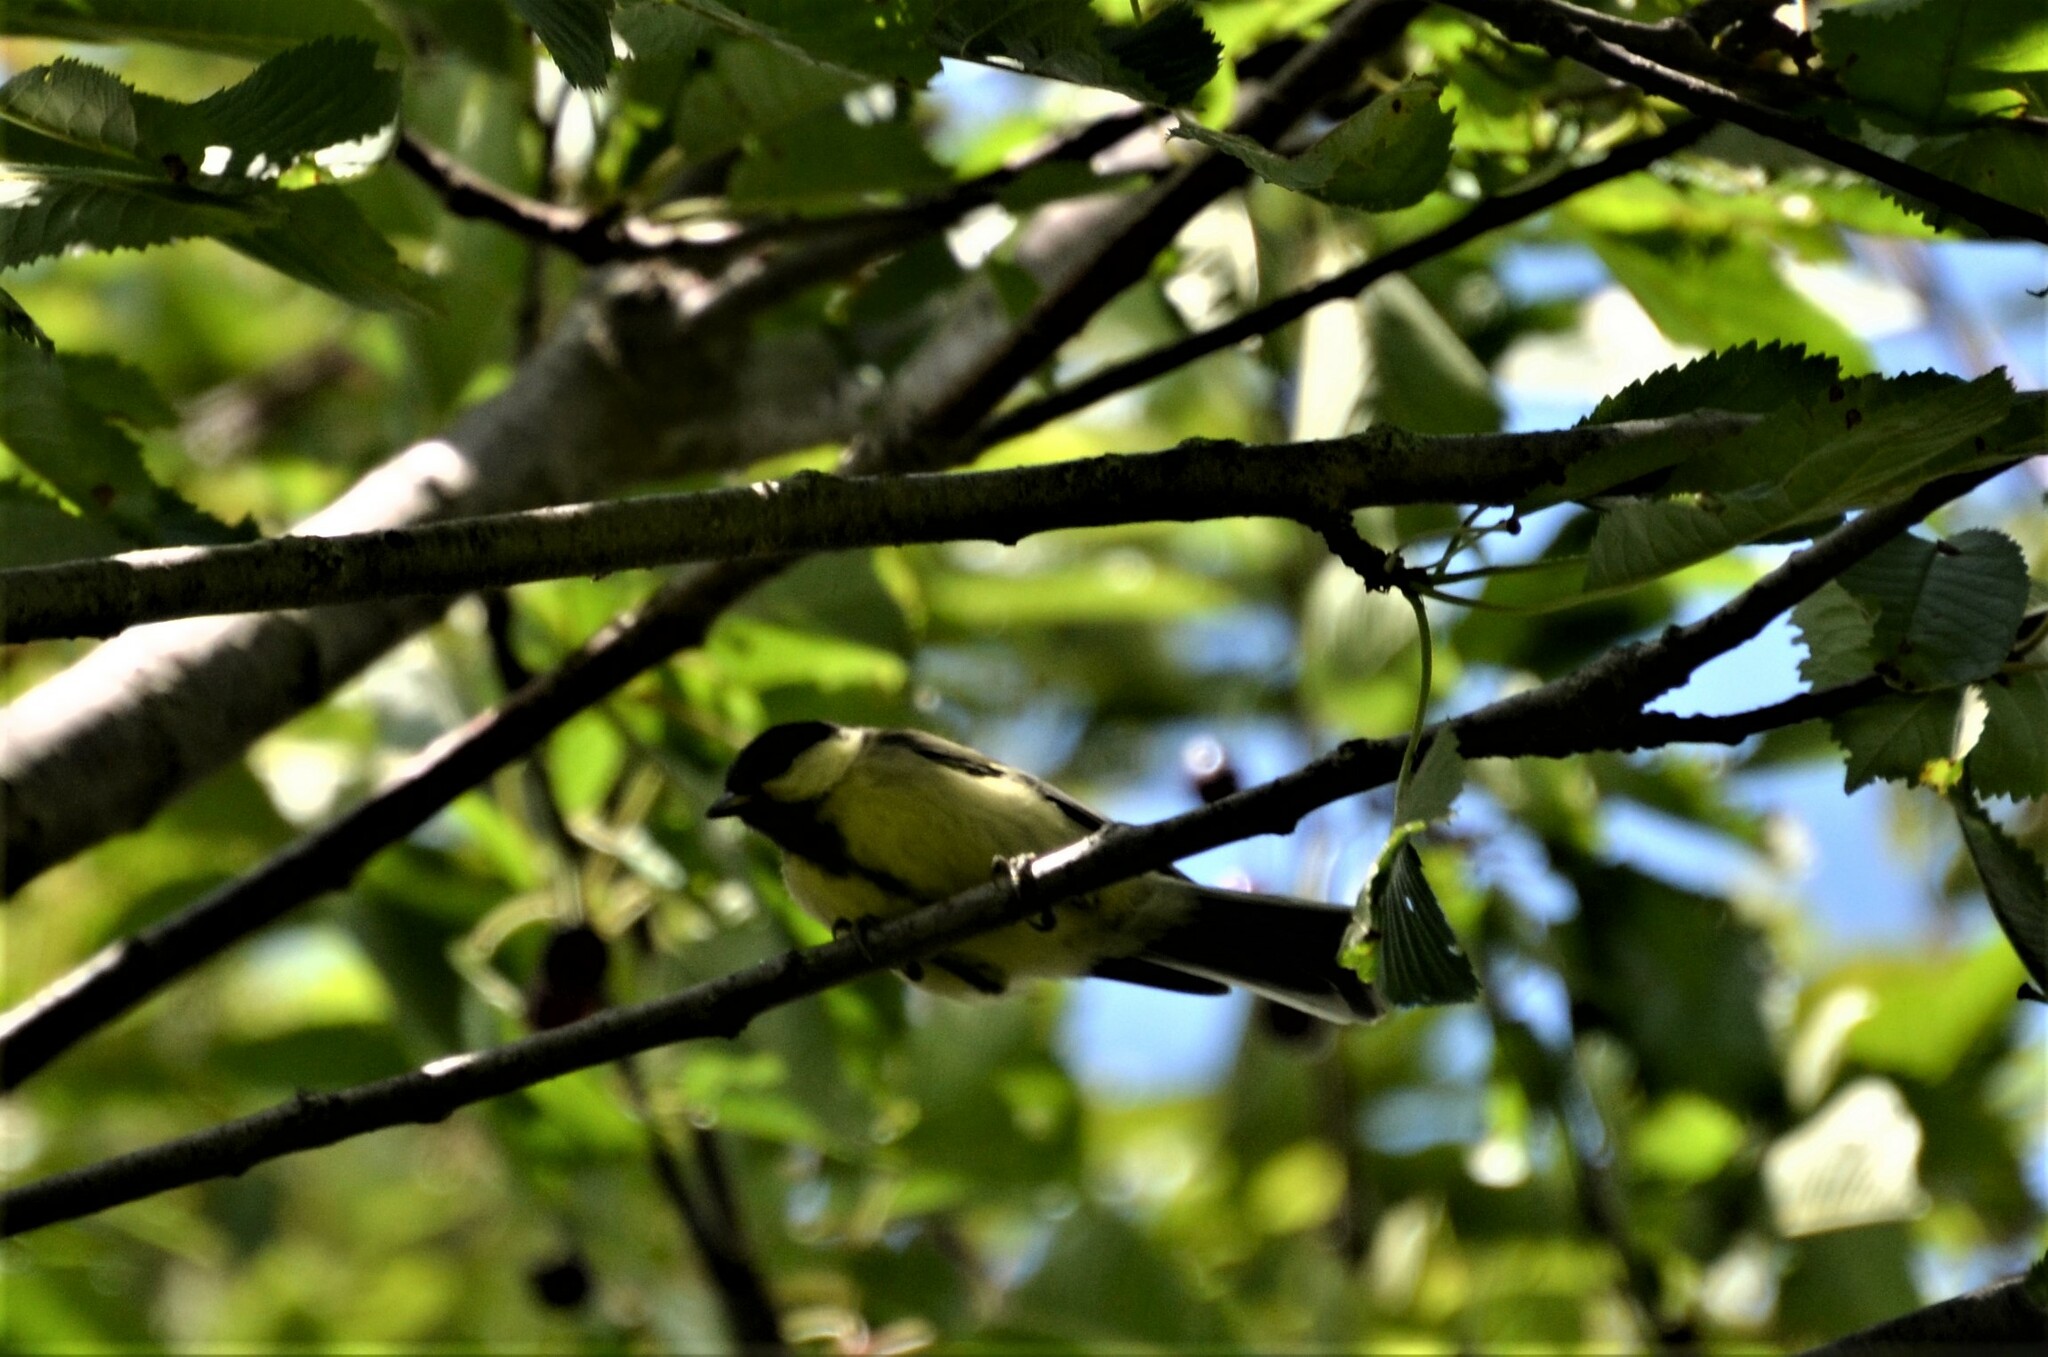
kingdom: Animalia
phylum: Chordata
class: Aves
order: Passeriformes
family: Paridae
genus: Parus
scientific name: Parus major
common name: Great tit
